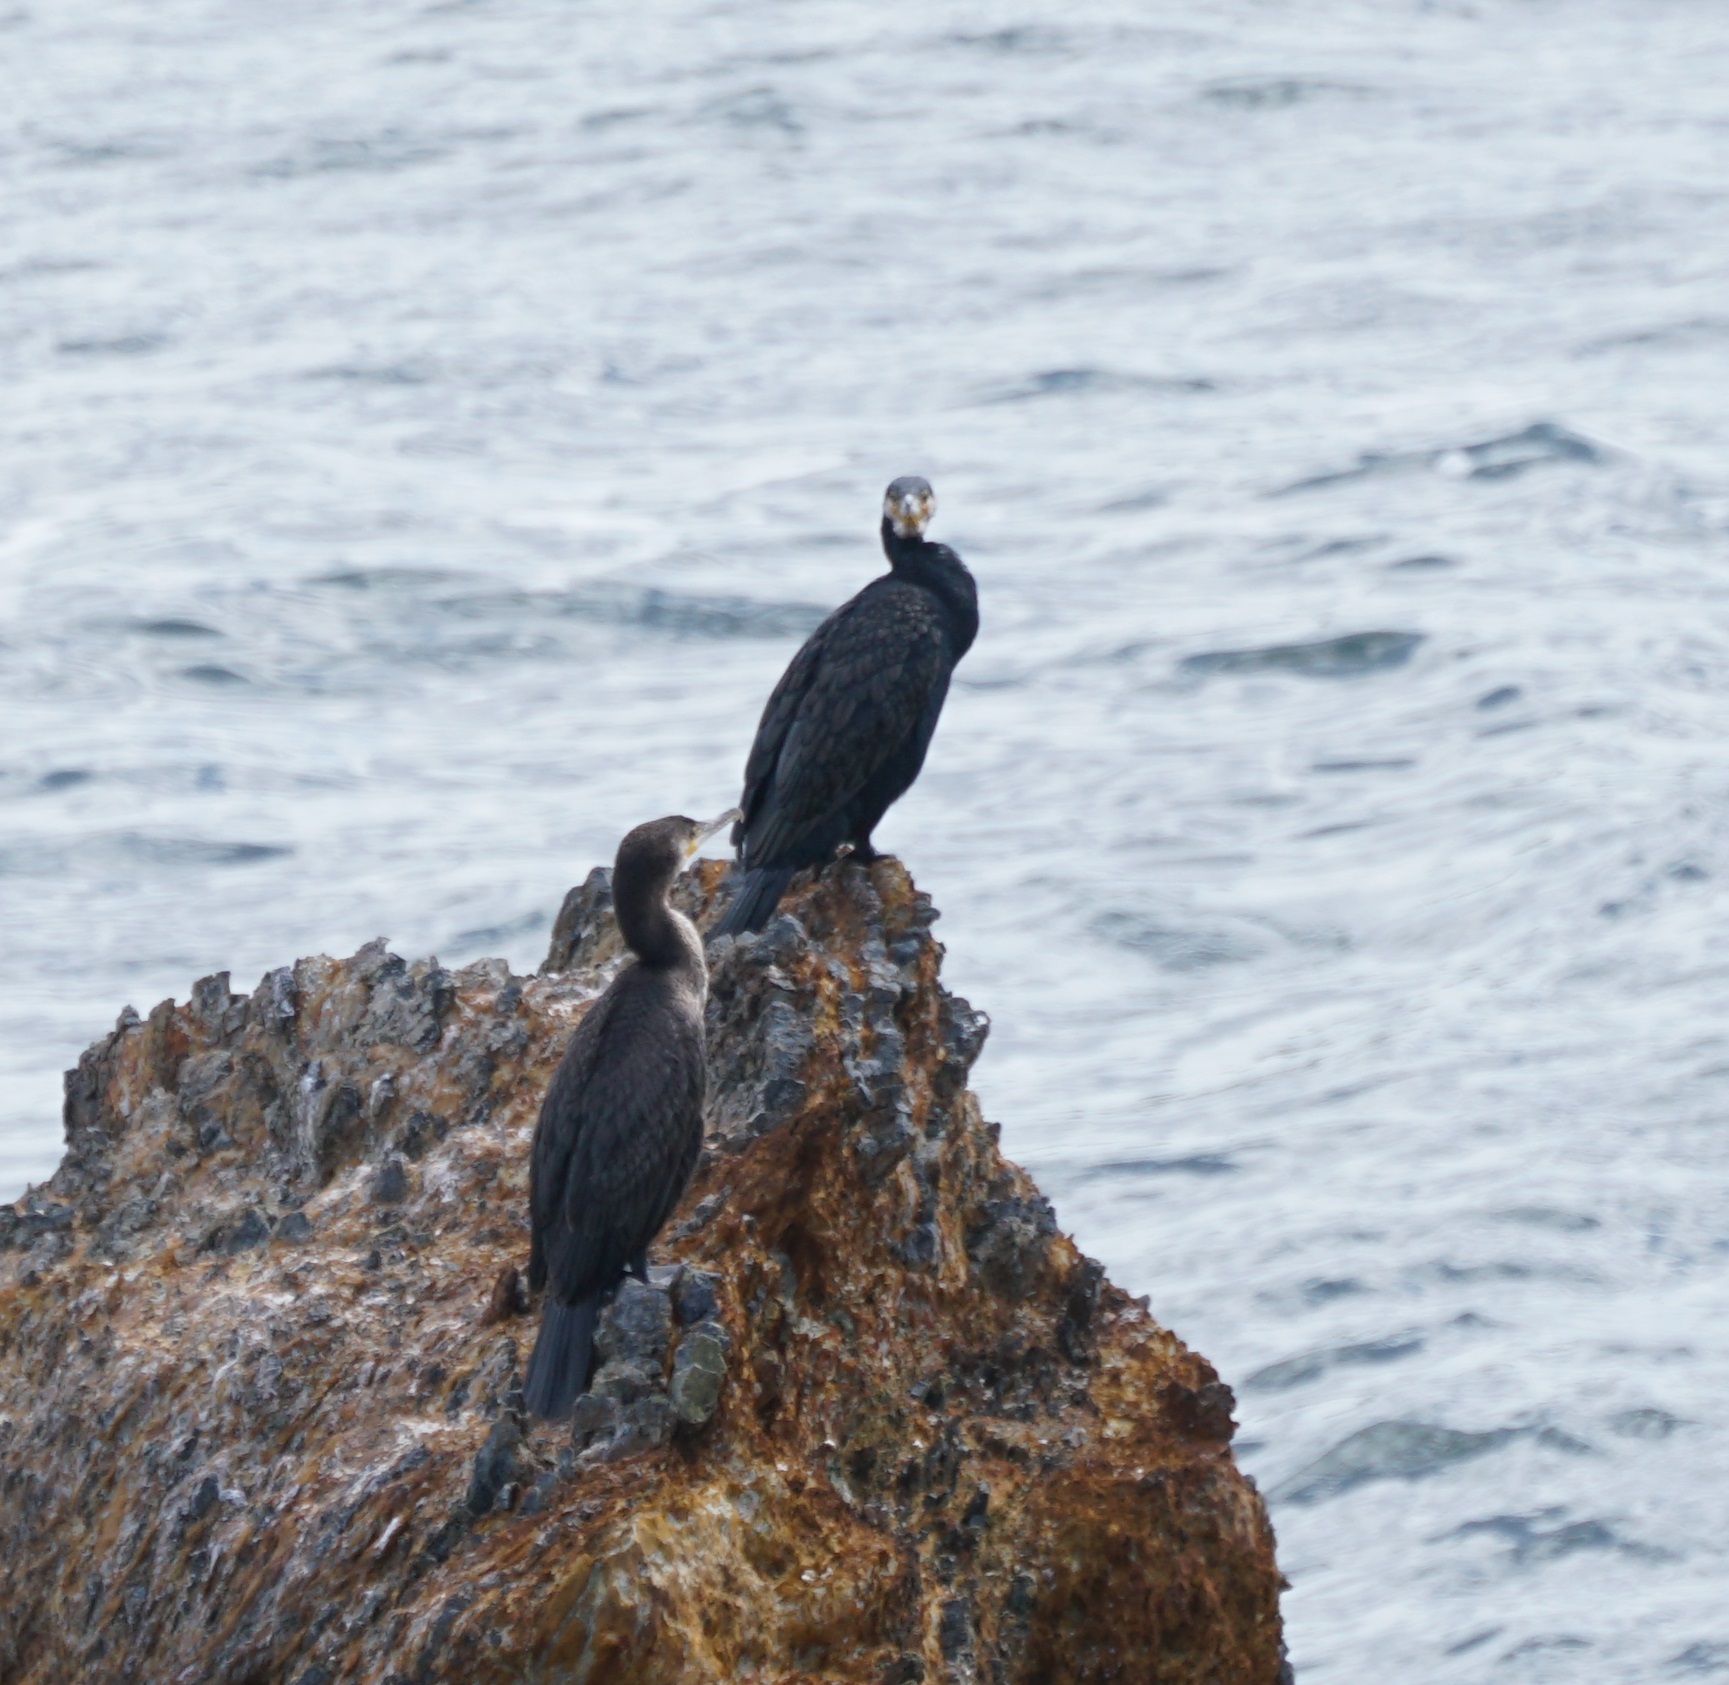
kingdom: Animalia
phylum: Chordata
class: Aves
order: Suliformes
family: Phalacrocoracidae
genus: Phalacrocorax
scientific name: Phalacrocorax carbo
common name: Great cormorant
